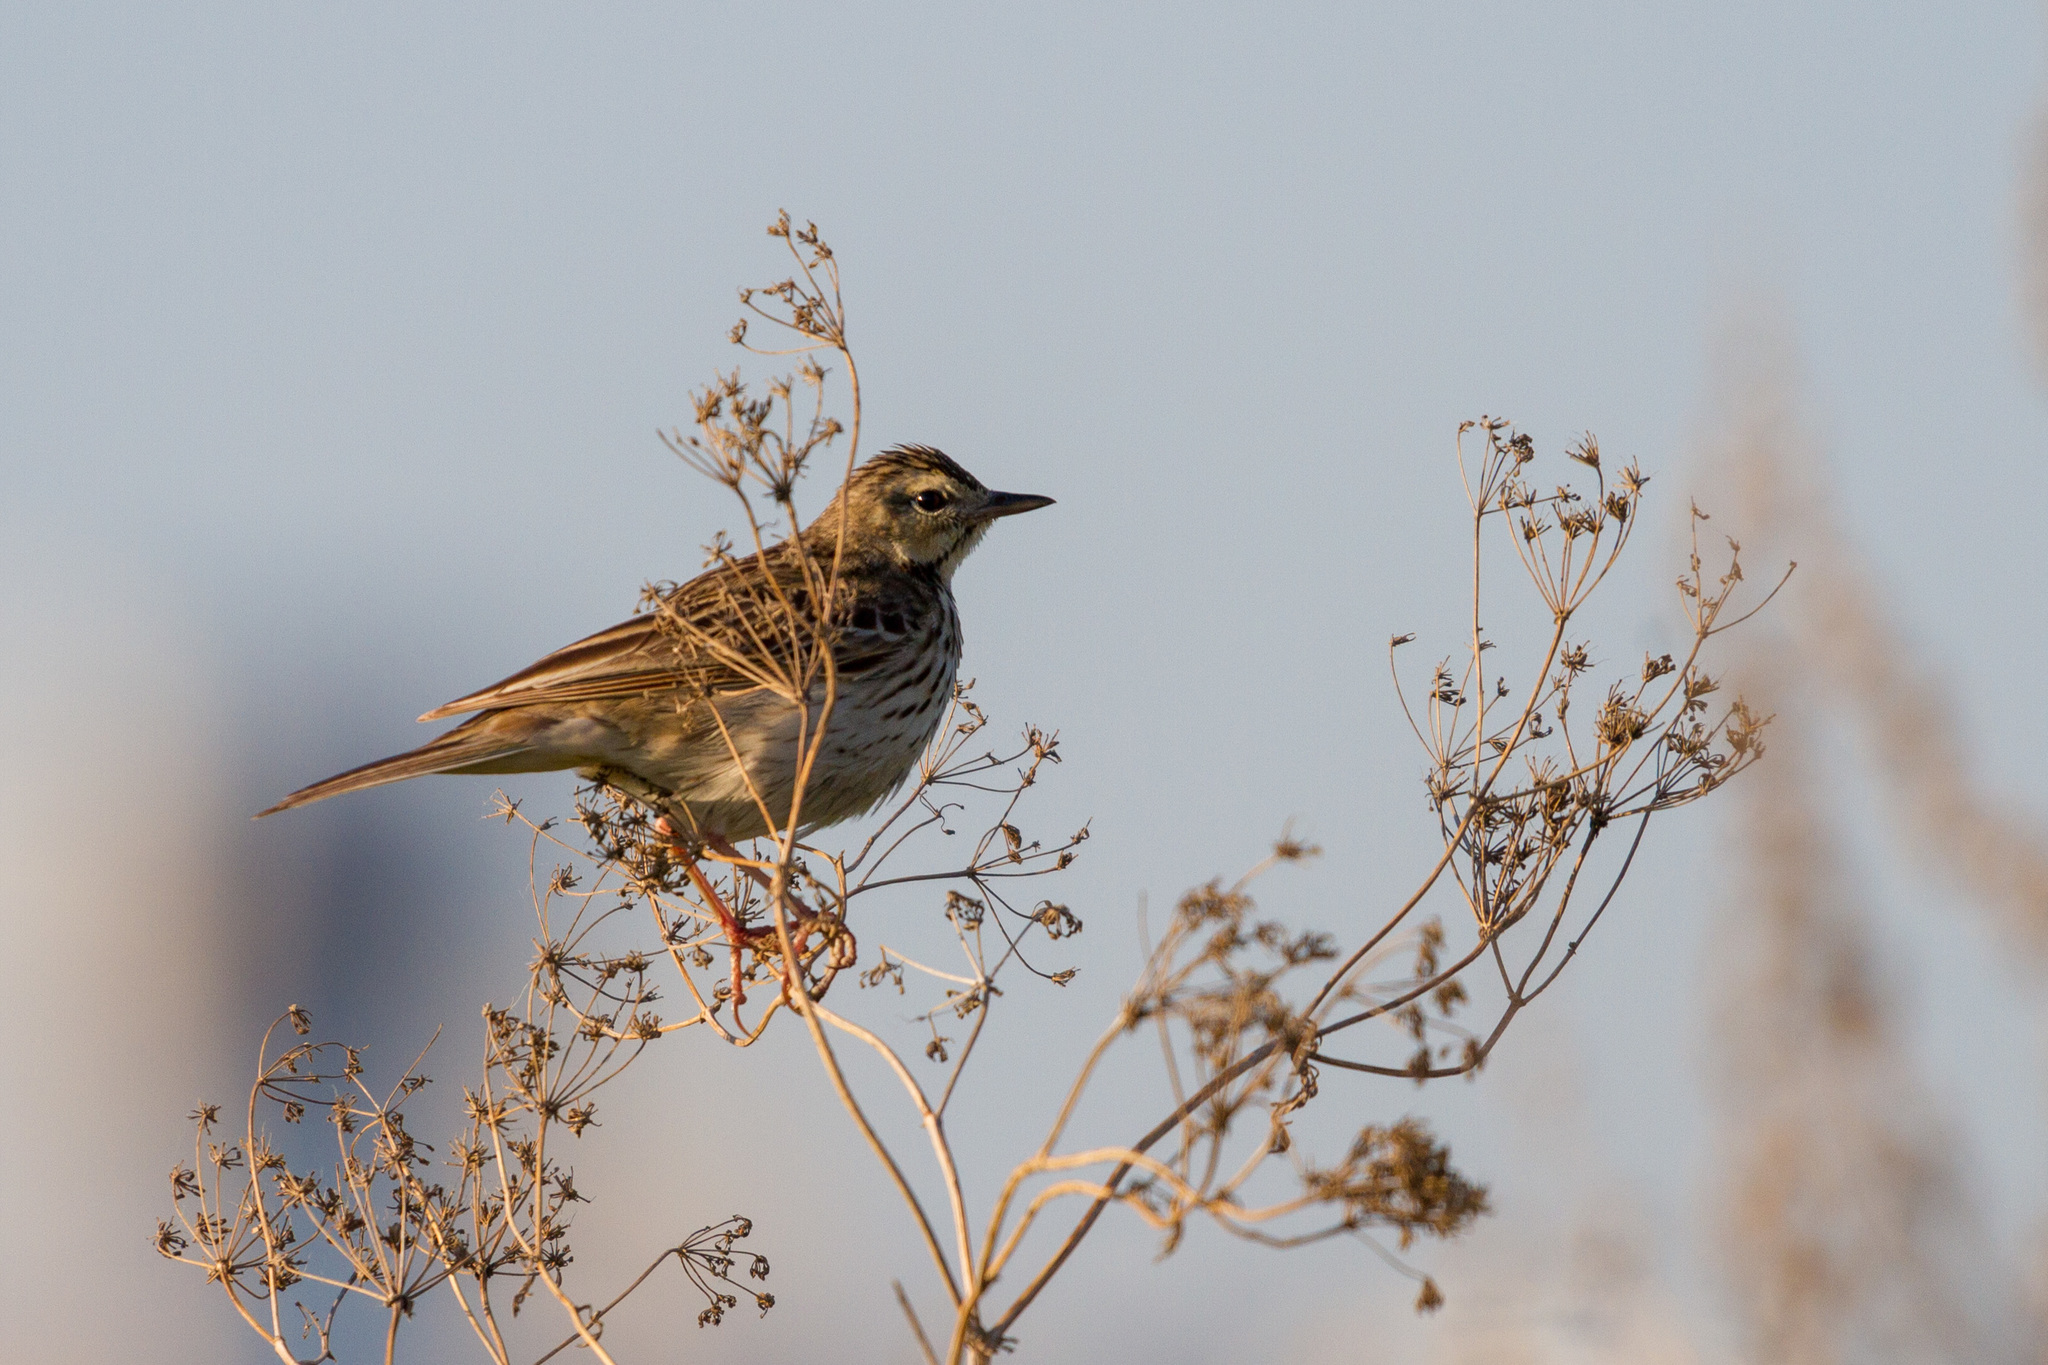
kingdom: Animalia
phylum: Chordata
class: Aves
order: Passeriformes
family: Motacillidae
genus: Anthus
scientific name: Anthus trivialis
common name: Tree pipit
